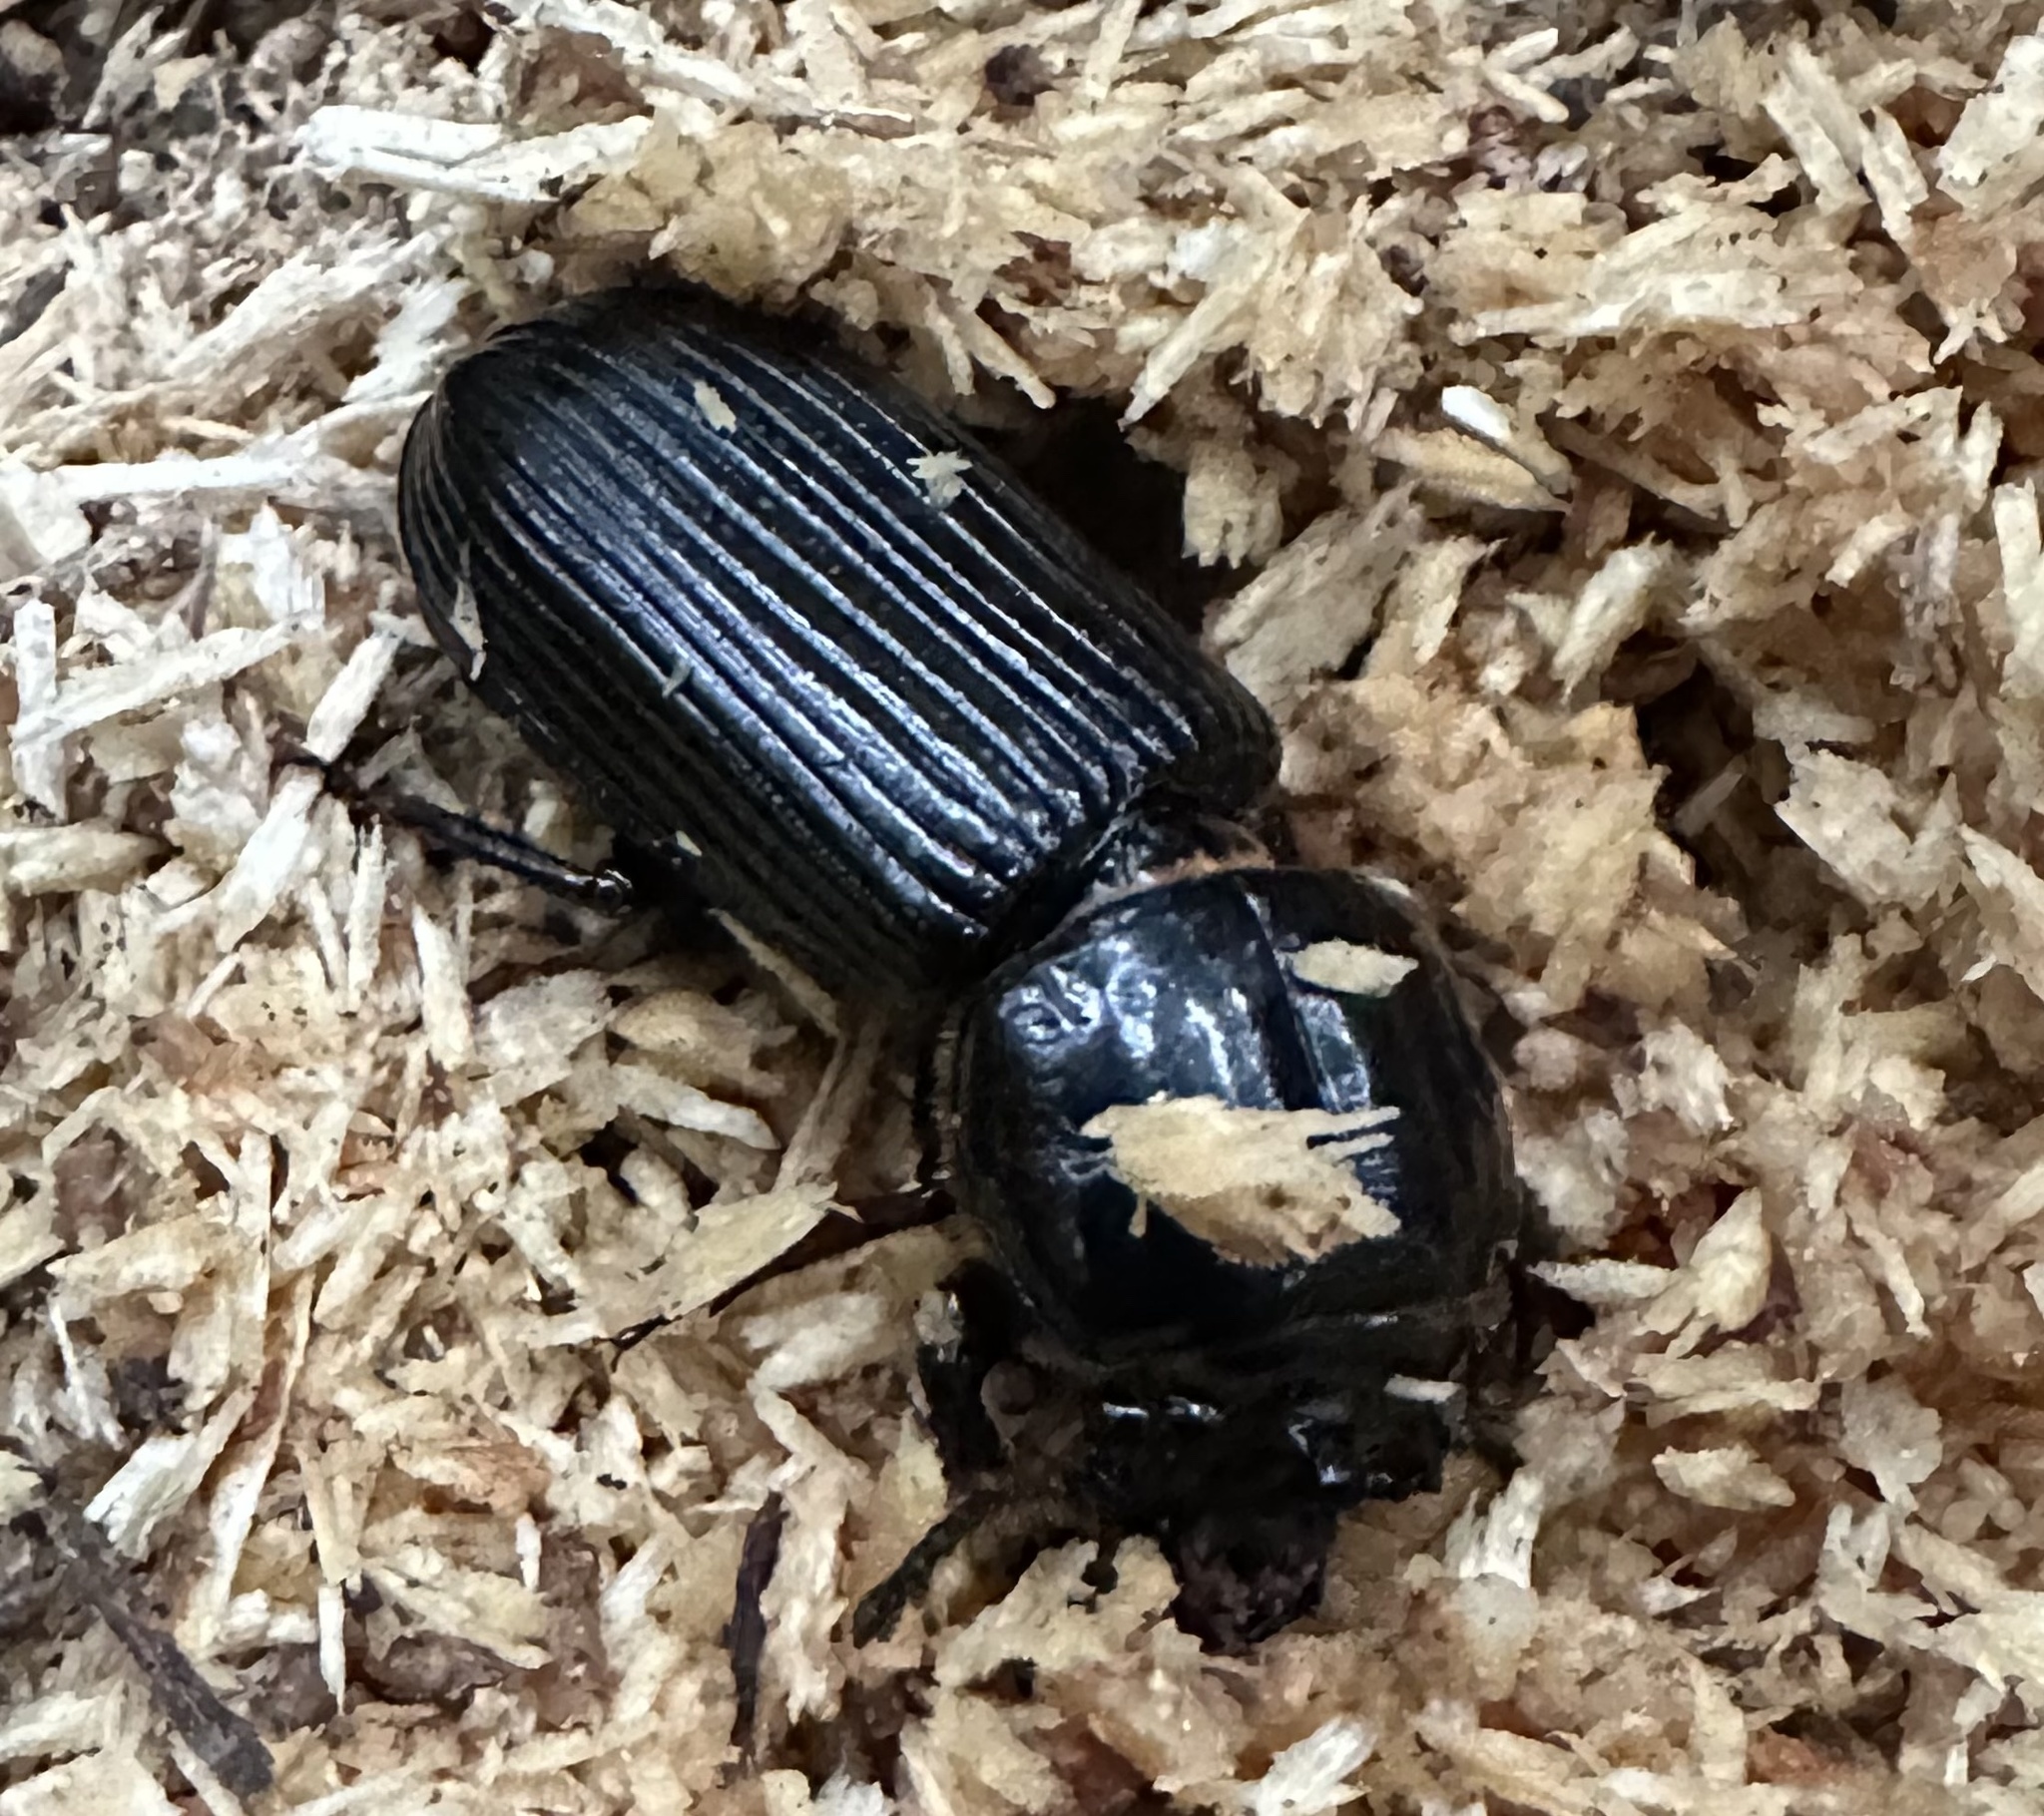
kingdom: Animalia
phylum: Arthropoda
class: Insecta
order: Coleoptera
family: Passalidae
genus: Odontotaenius
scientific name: Odontotaenius disjunctus
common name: Patent leather beetle
